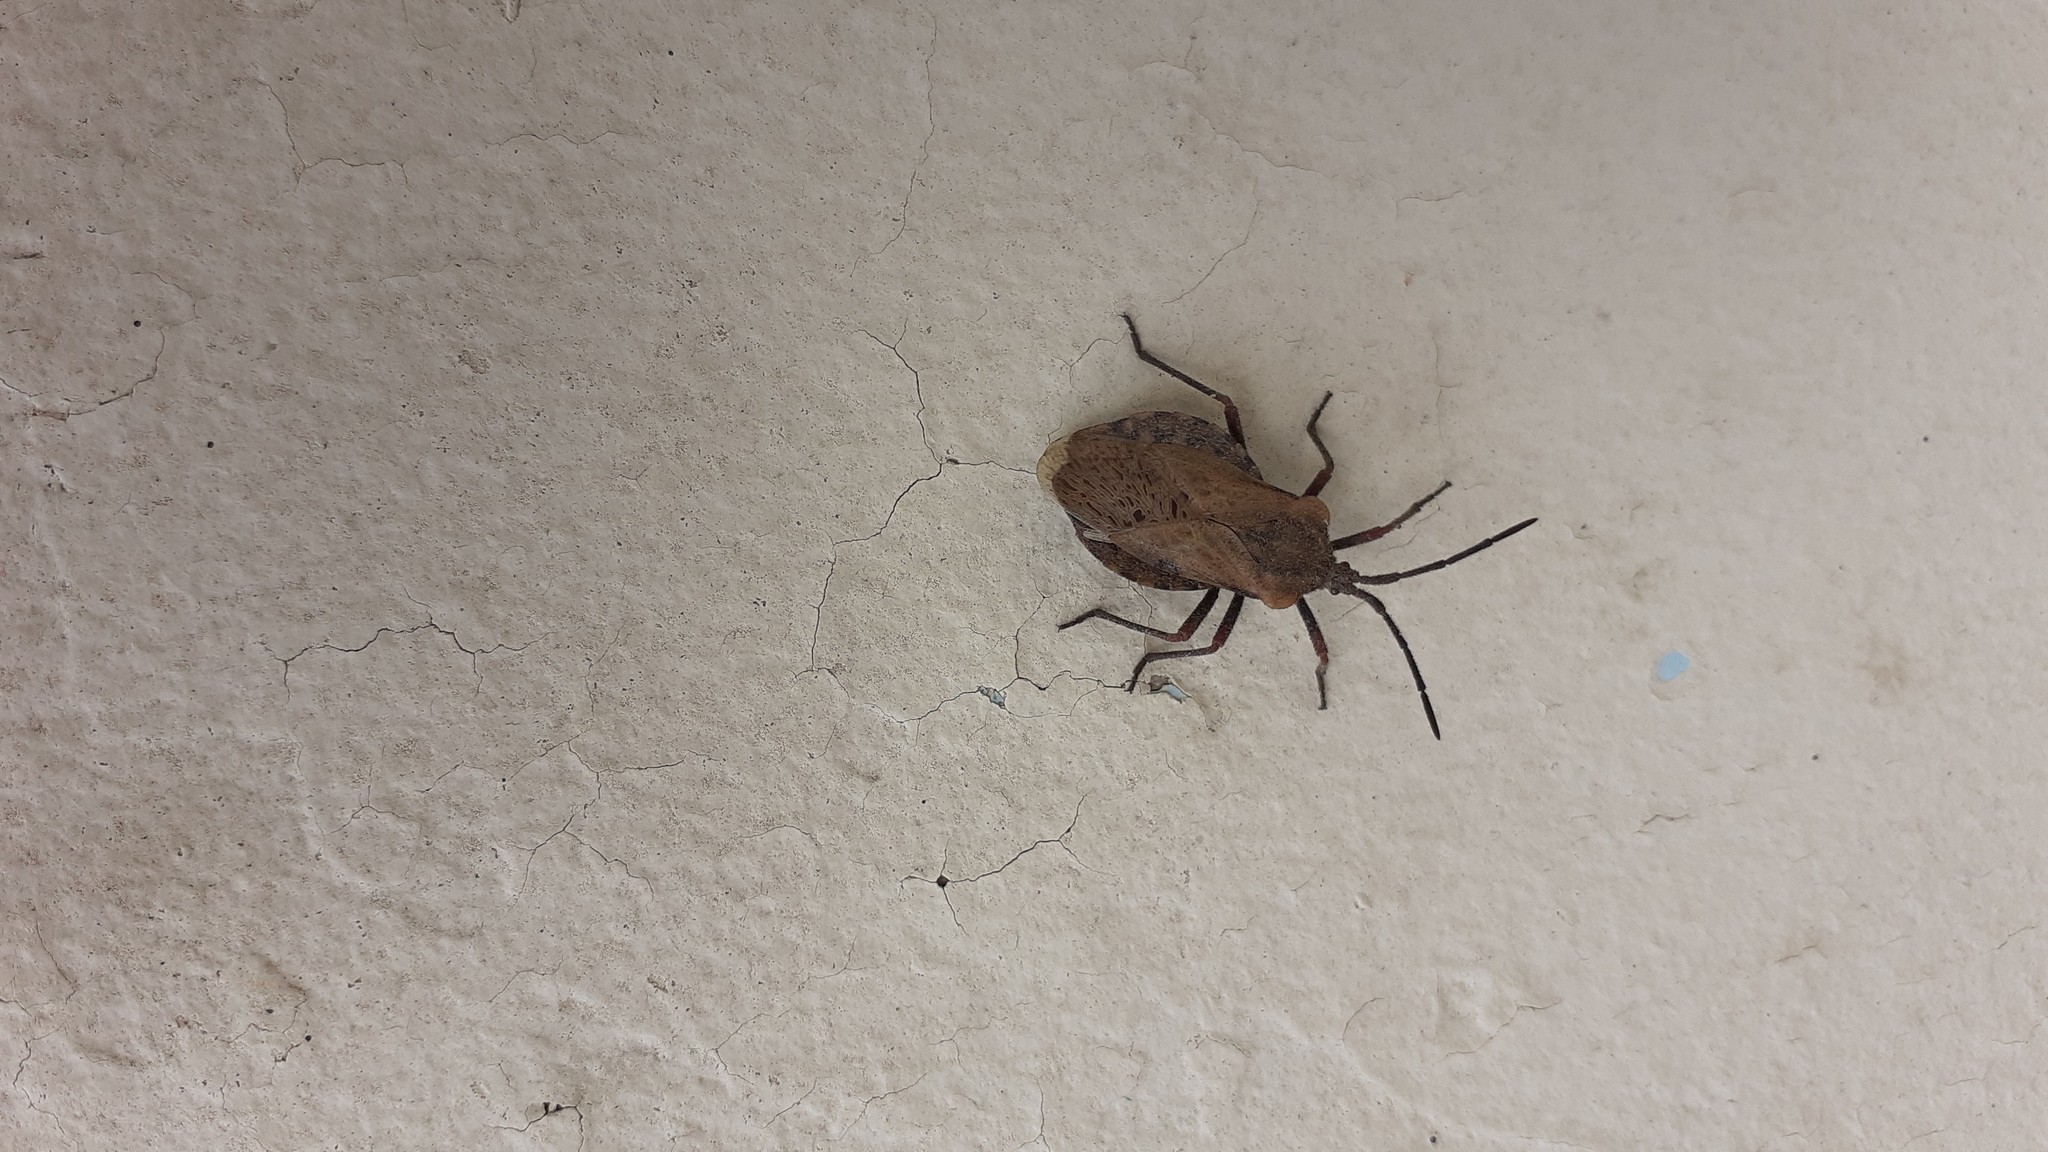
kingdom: Animalia
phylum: Arthropoda
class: Insecta
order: Hemiptera
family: Coreidae
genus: Spartocera
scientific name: Spartocera fusca
